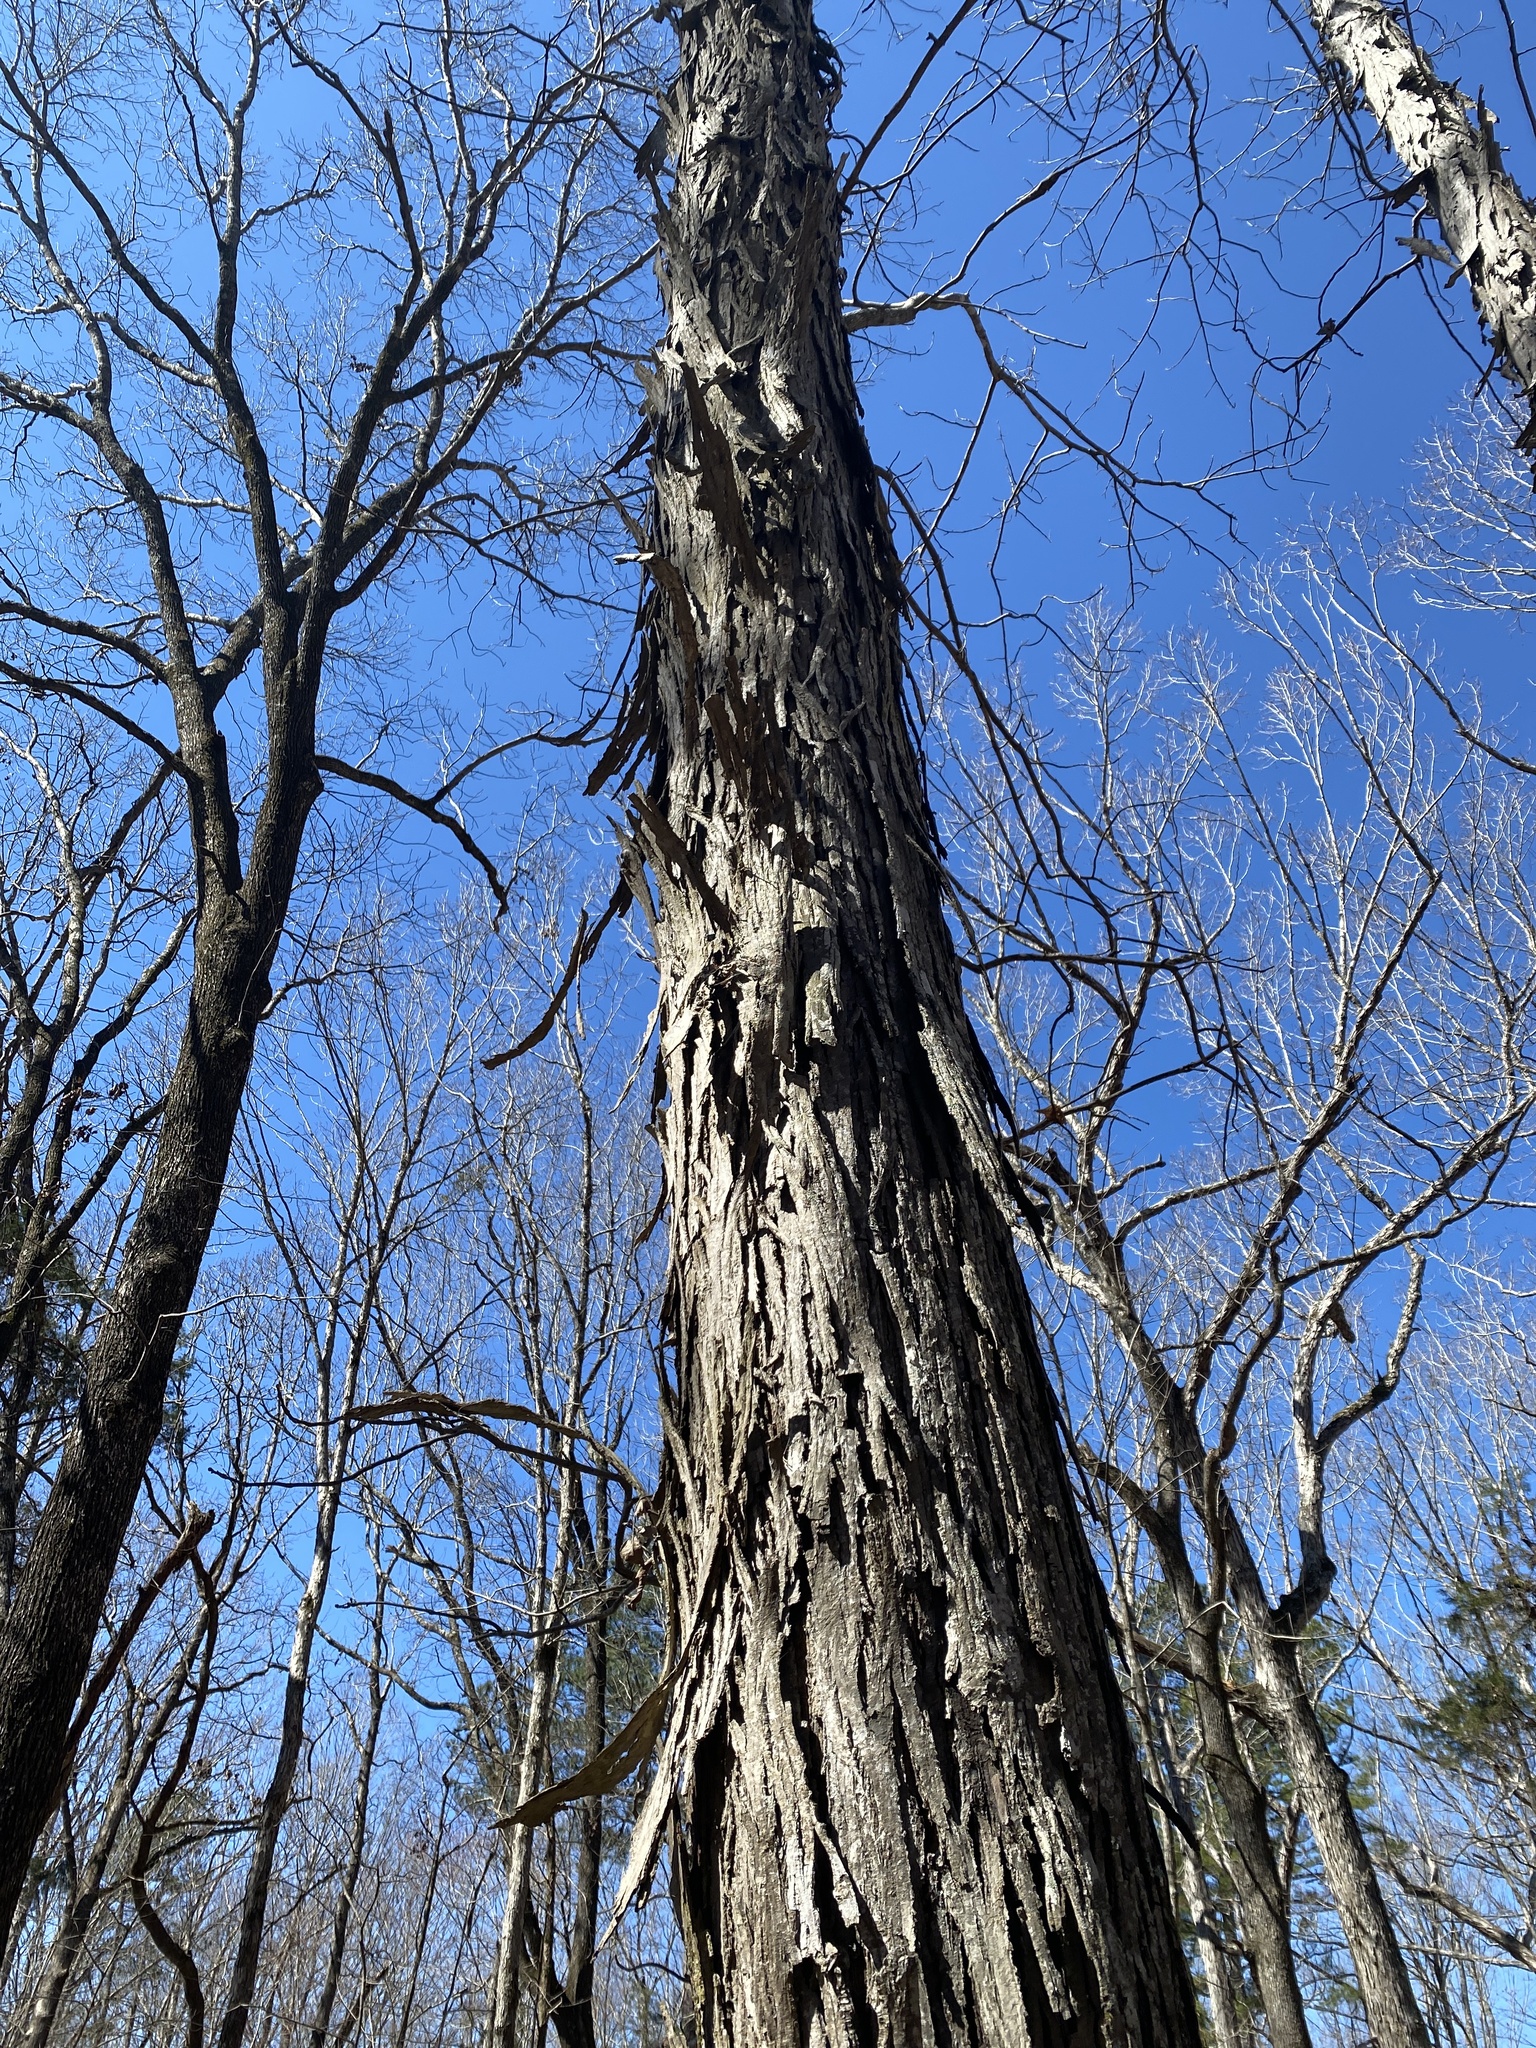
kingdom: Plantae
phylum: Tracheophyta
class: Magnoliopsida
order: Fagales
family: Juglandaceae
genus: Carya
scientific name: Carya carolinae-septentrionalis
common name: Carolina hickory
